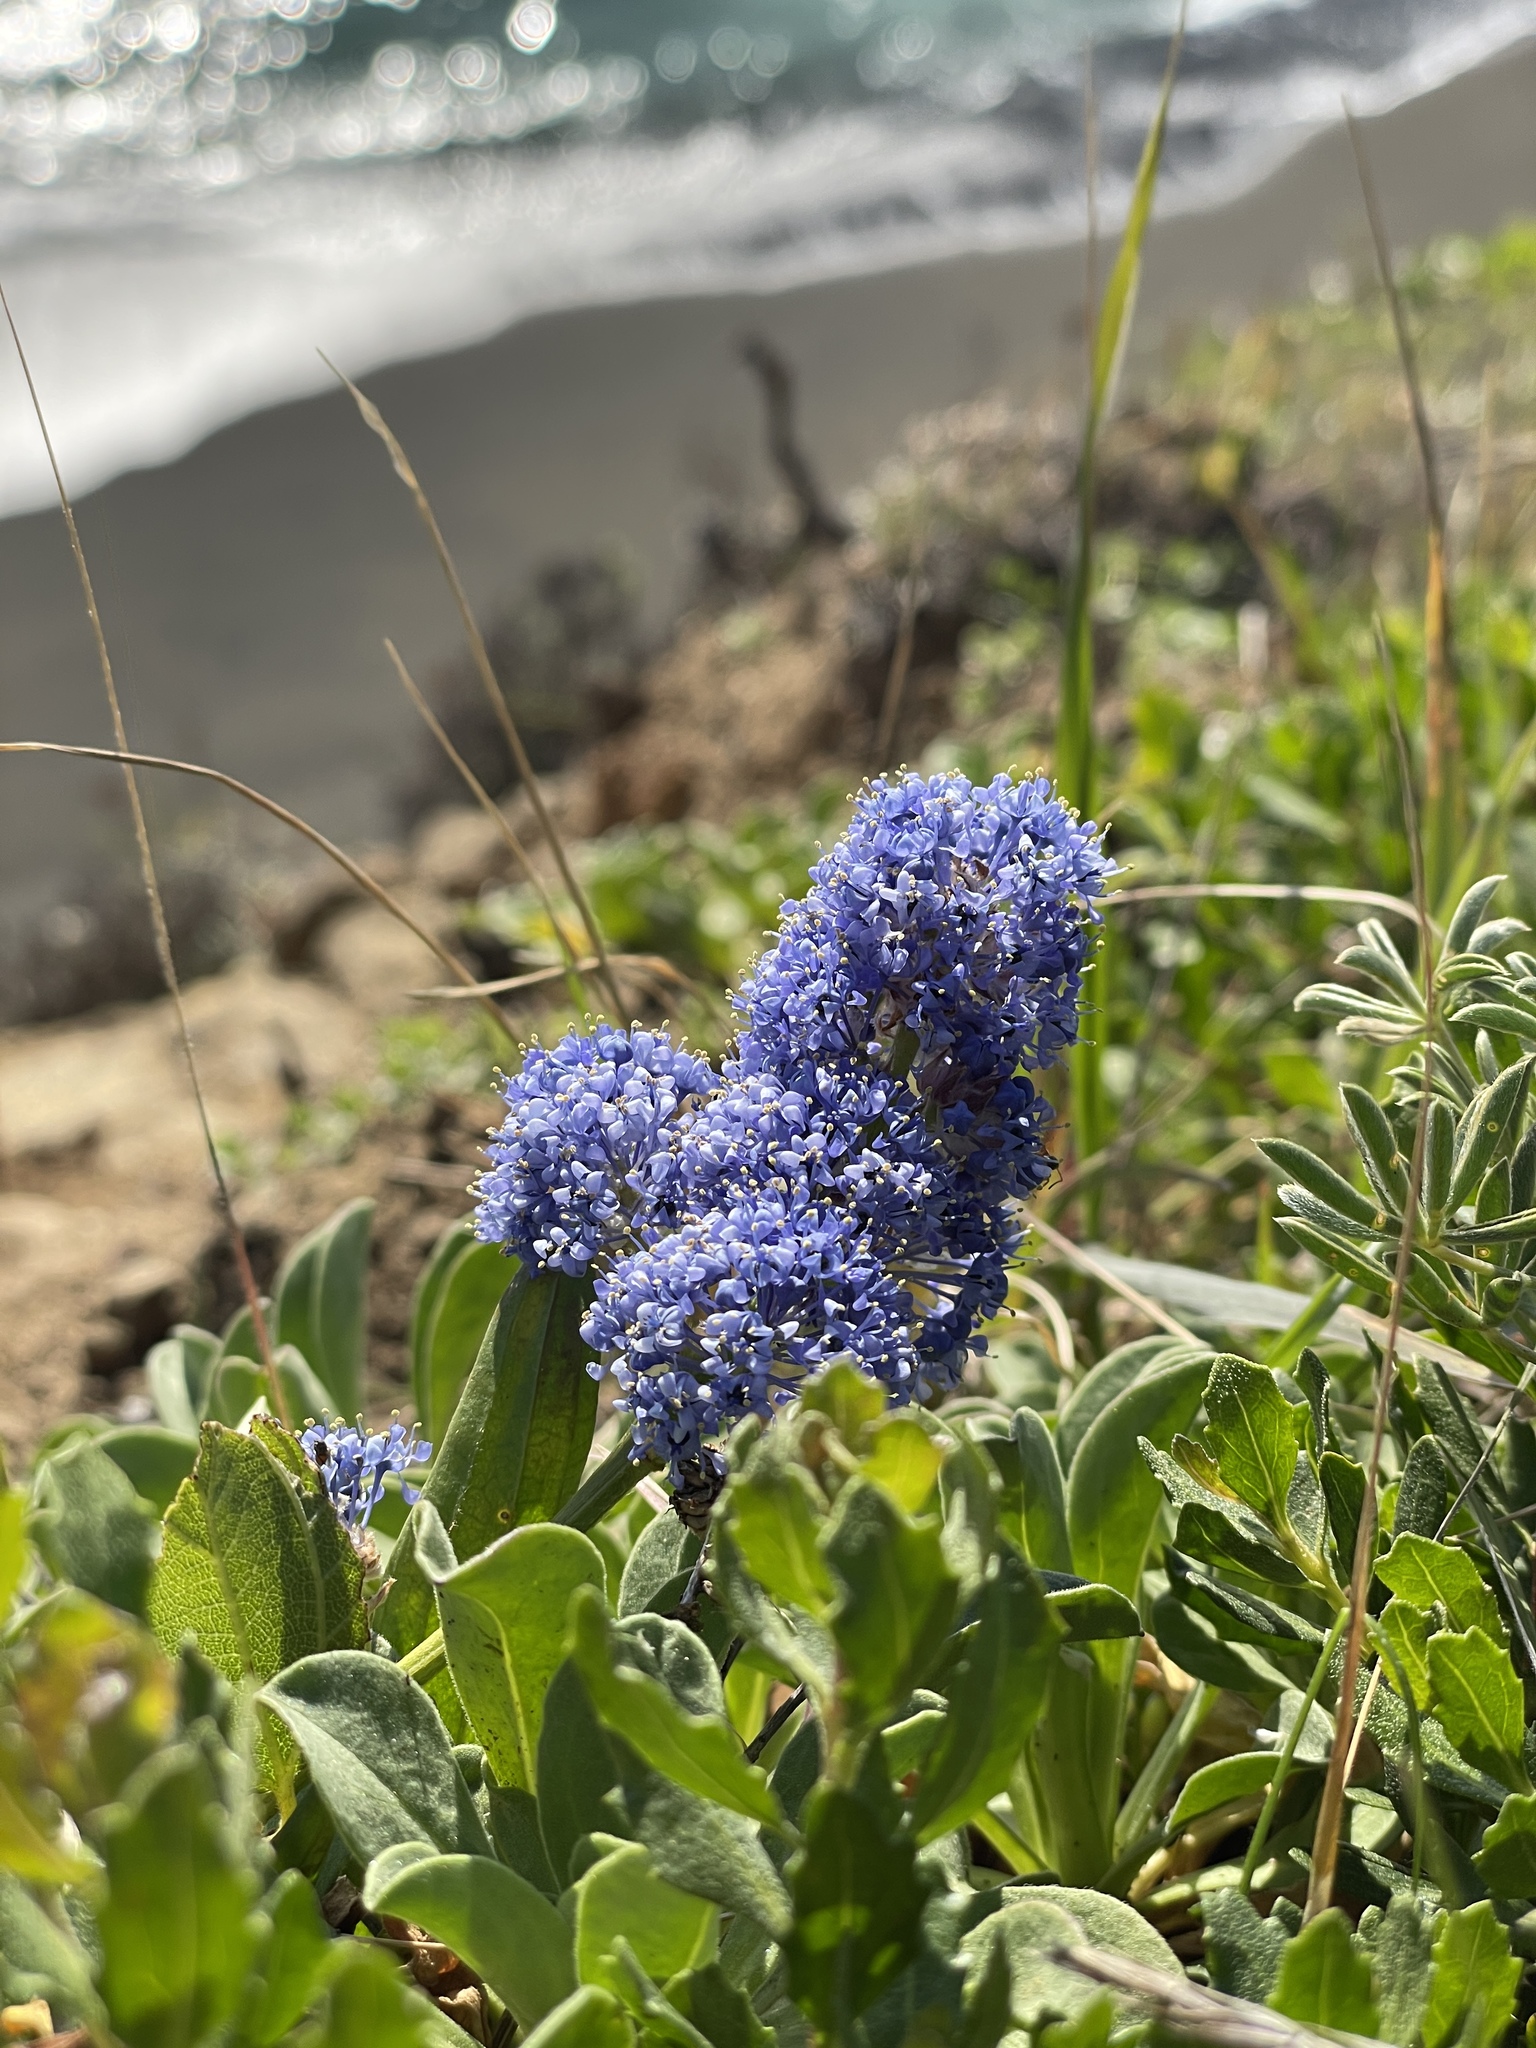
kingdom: Plantae
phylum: Tracheophyta
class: Magnoliopsida
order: Rosales
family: Rhamnaceae
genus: Ceanothus
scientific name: Ceanothus griseus
